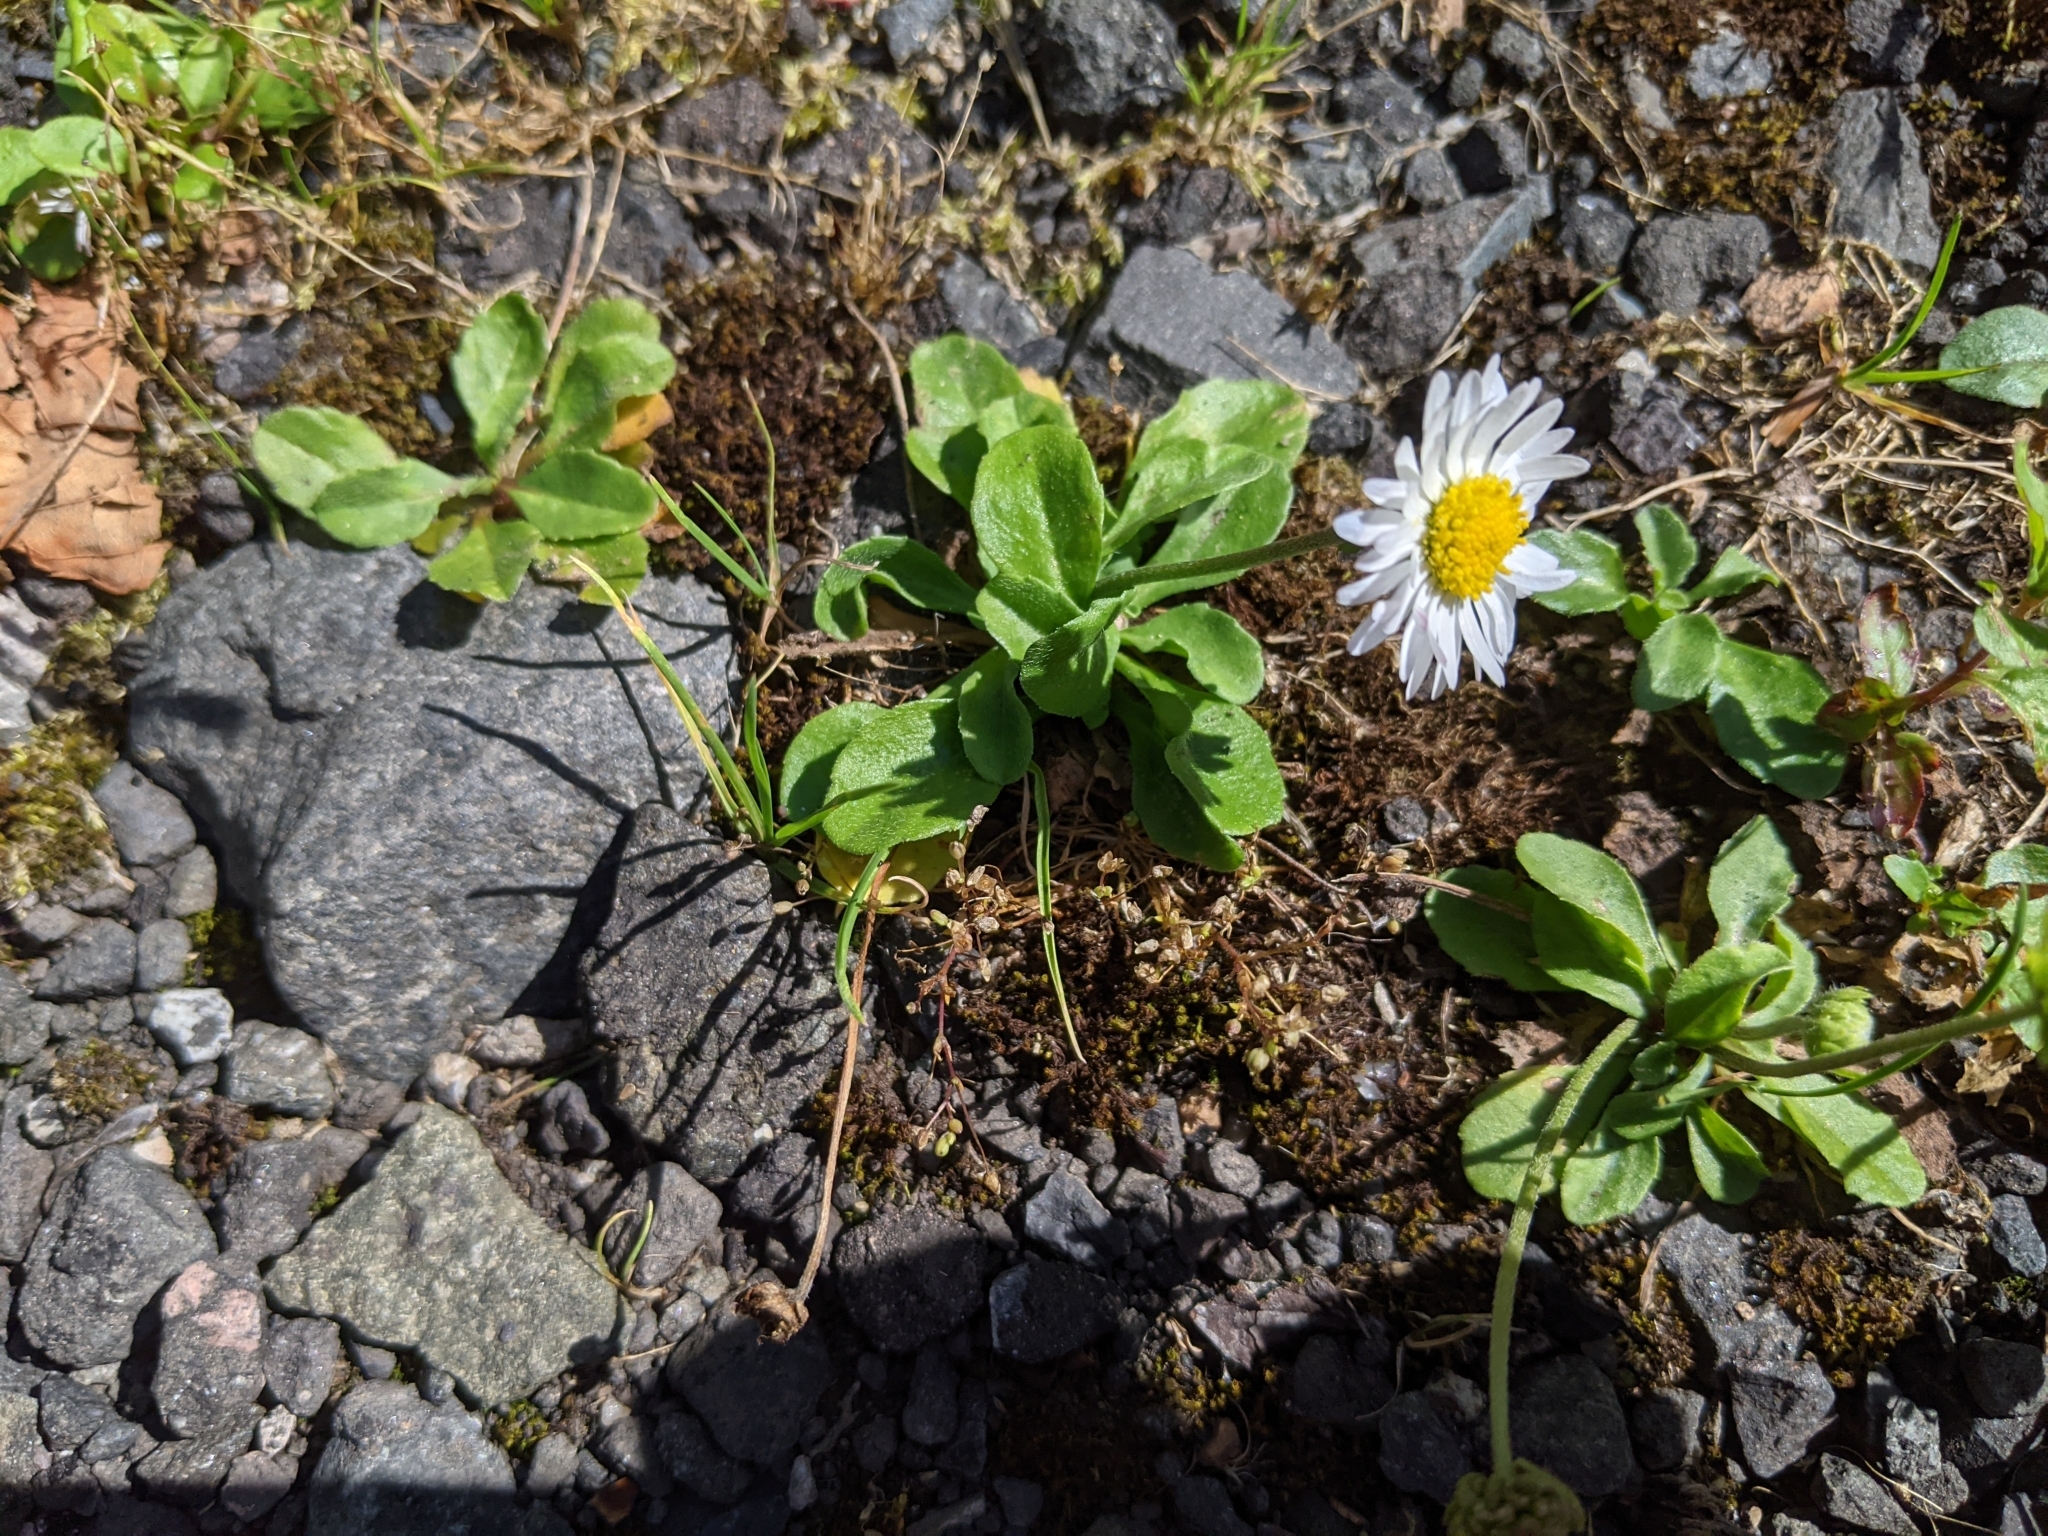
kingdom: Plantae
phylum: Tracheophyta
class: Magnoliopsida
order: Asterales
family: Asteraceae
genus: Bellis
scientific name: Bellis perennis
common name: Lawndaisy
